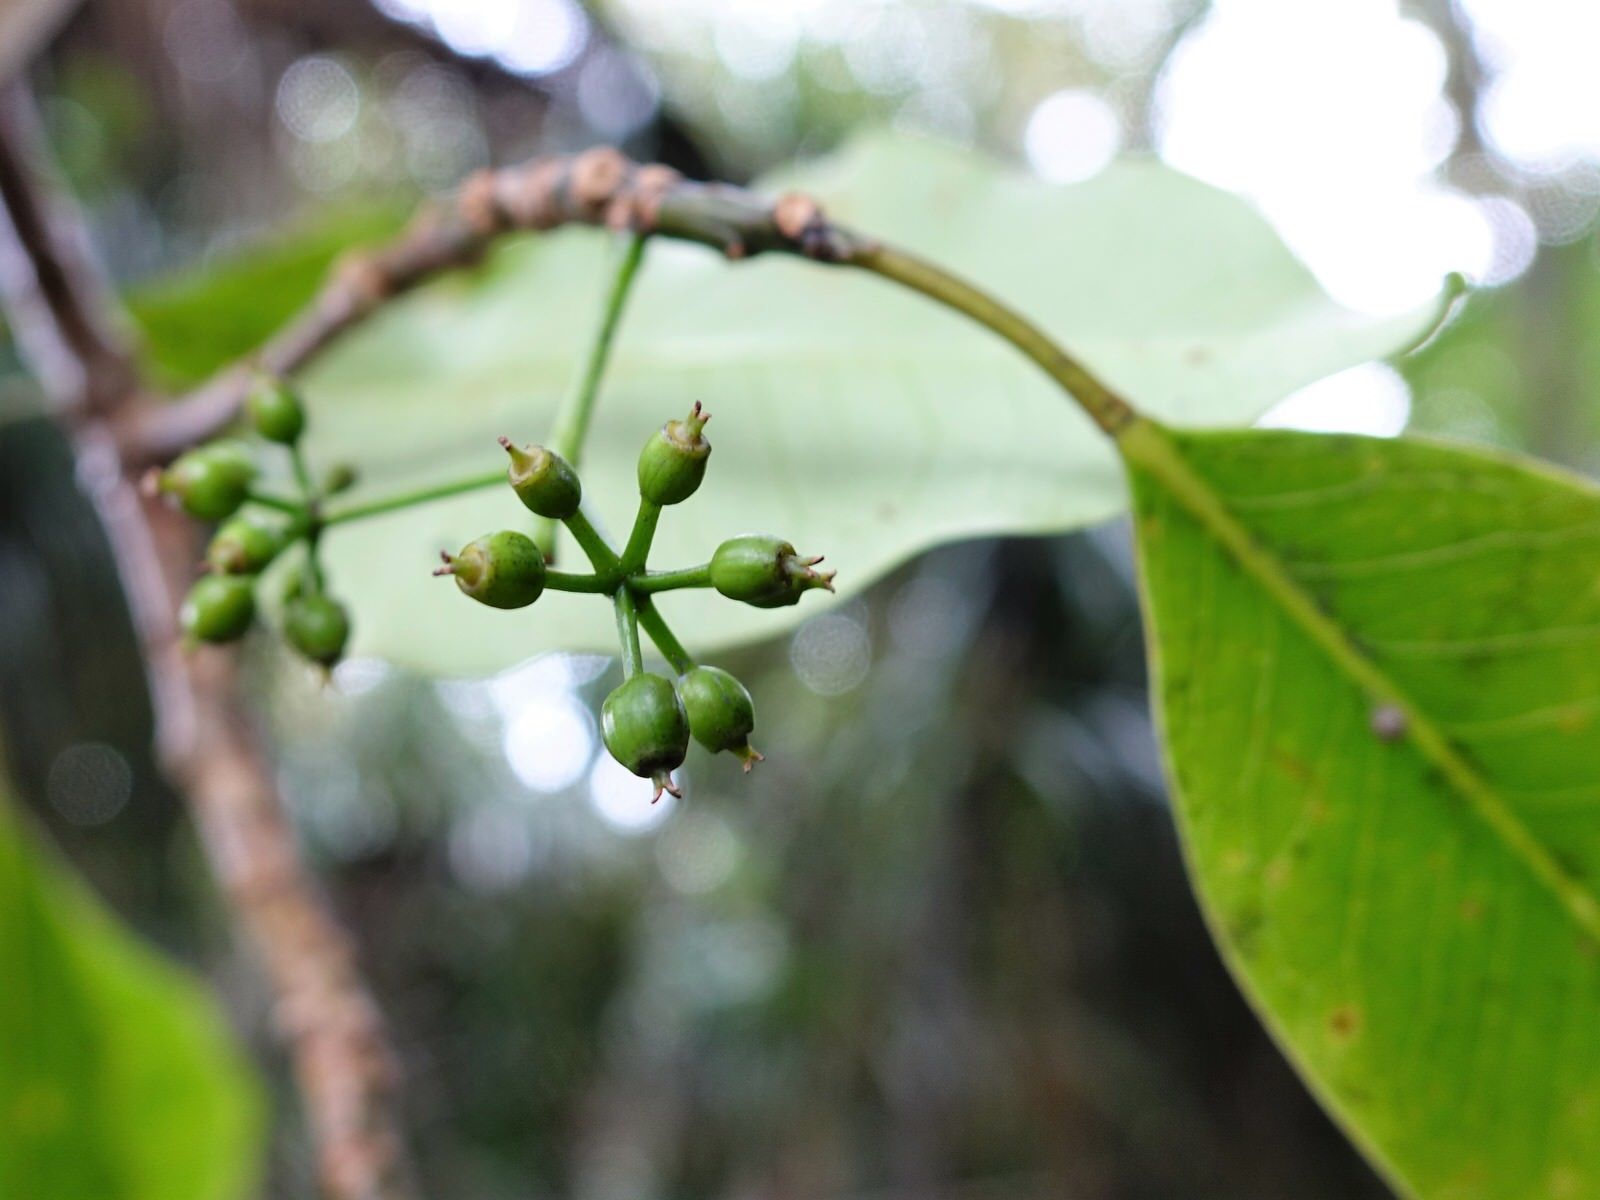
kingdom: Plantae
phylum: Tracheophyta
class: Magnoliopsida
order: Apiales
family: Araliaceae
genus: Raukaua
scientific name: Raukaua edgerleyi
